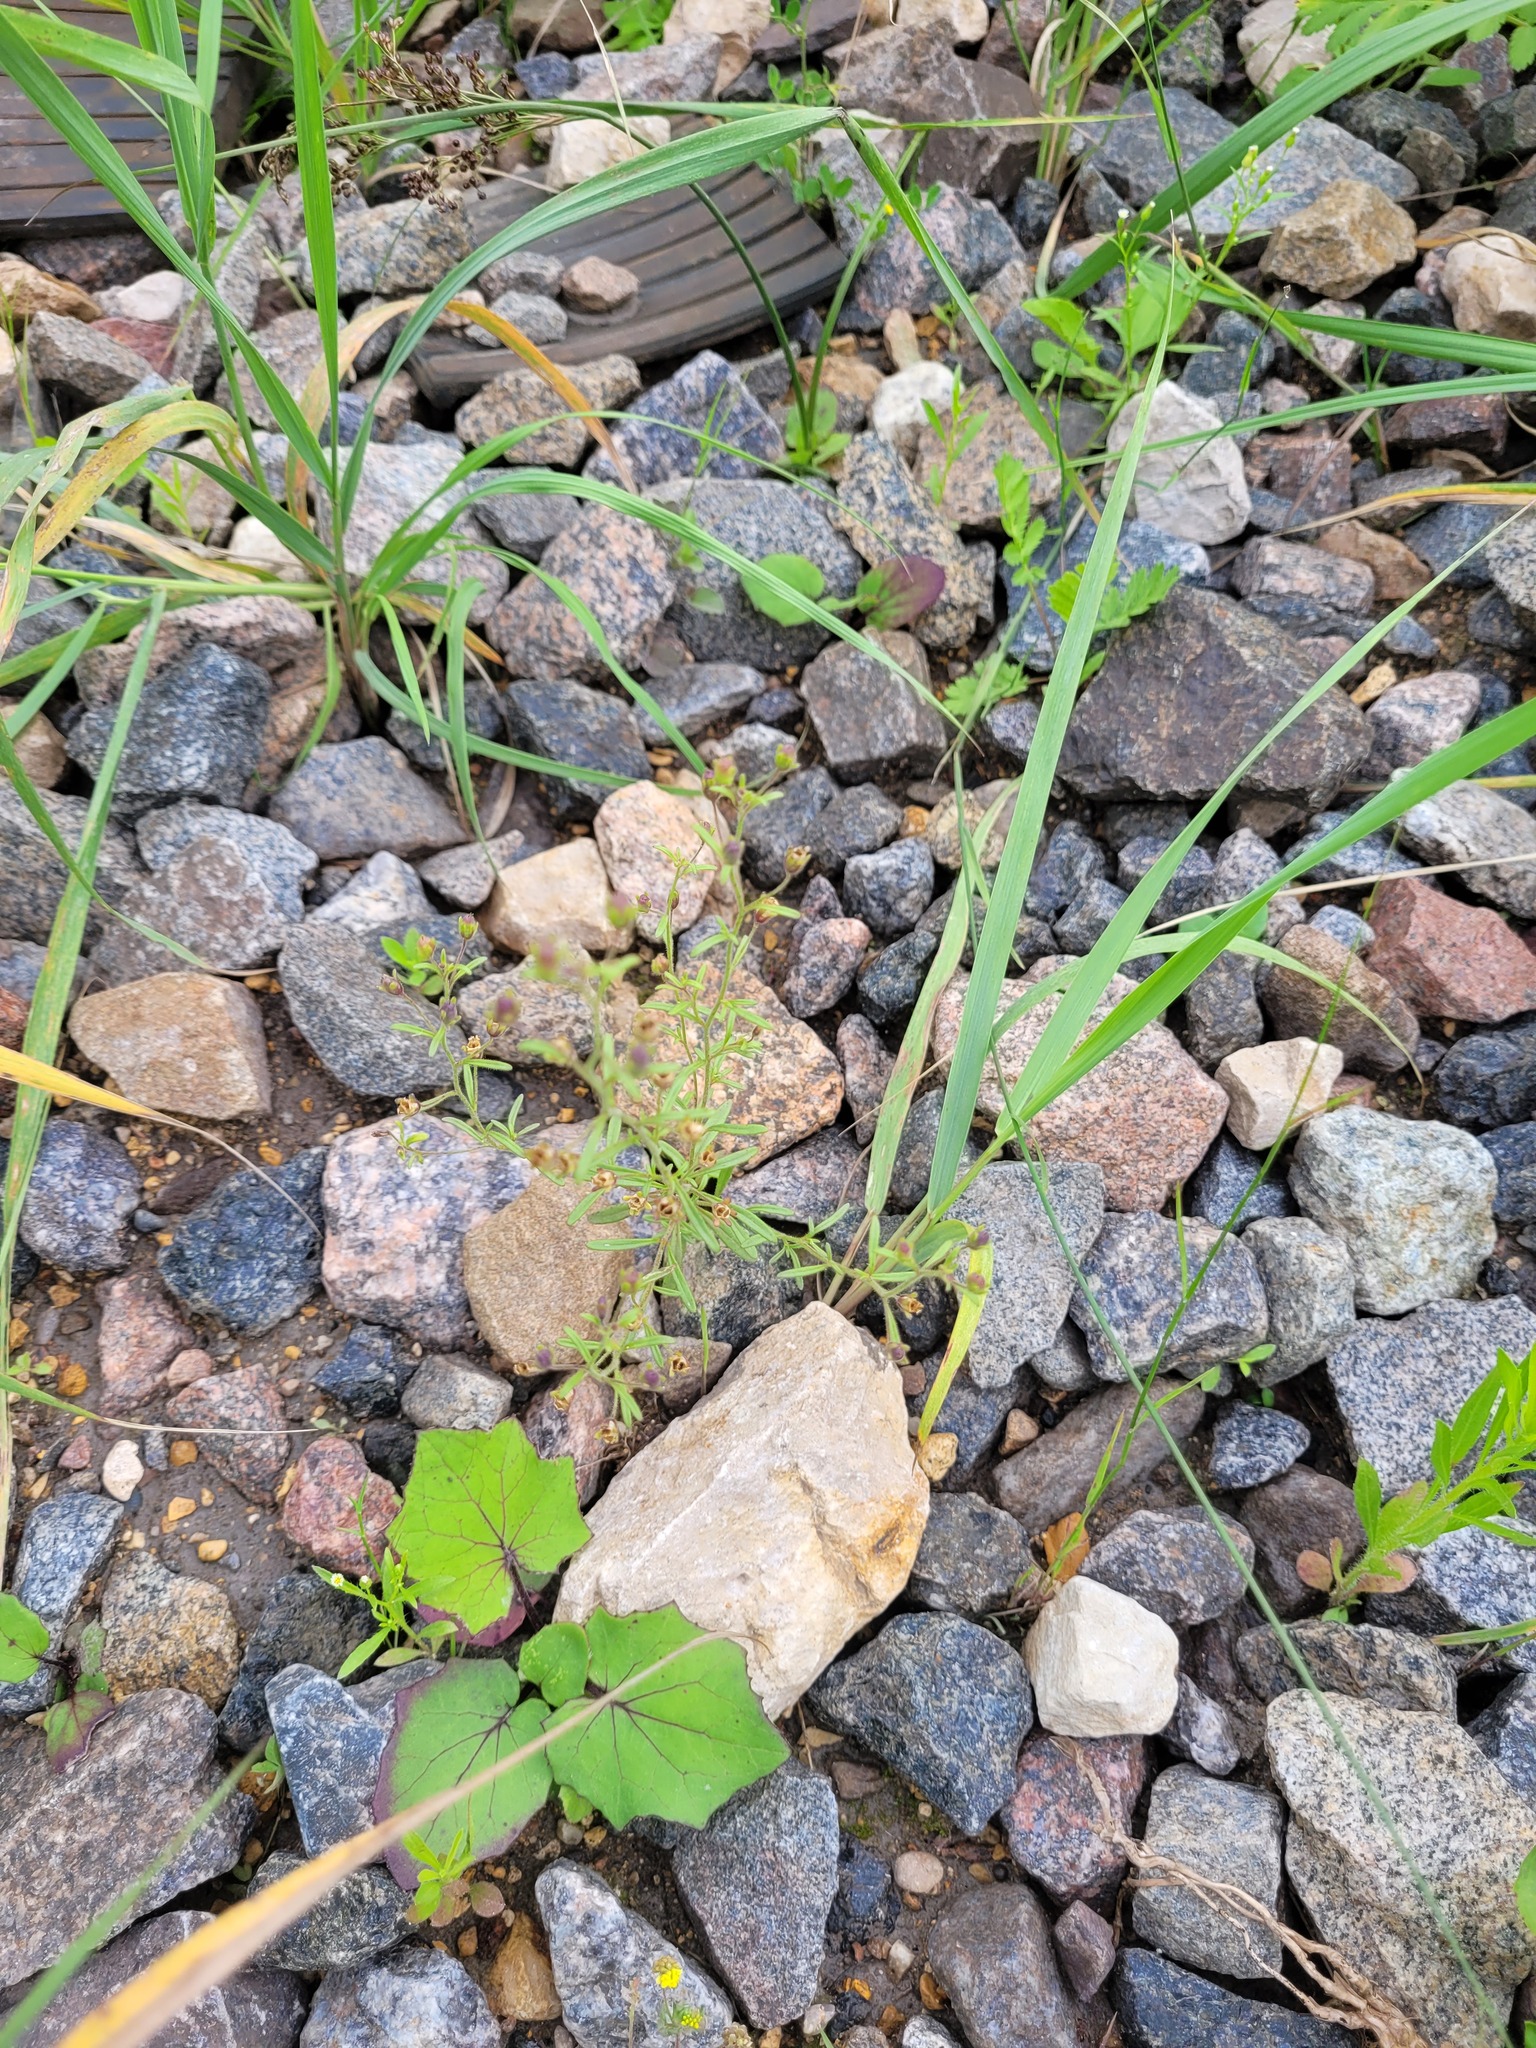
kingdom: Plantae
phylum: Tracheophyta
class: Magnoliopsida
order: Lamiales
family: Plantaginaceae
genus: Chaenorhinum
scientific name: Chaenorhinum minus
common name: Dwarf snapdragon
